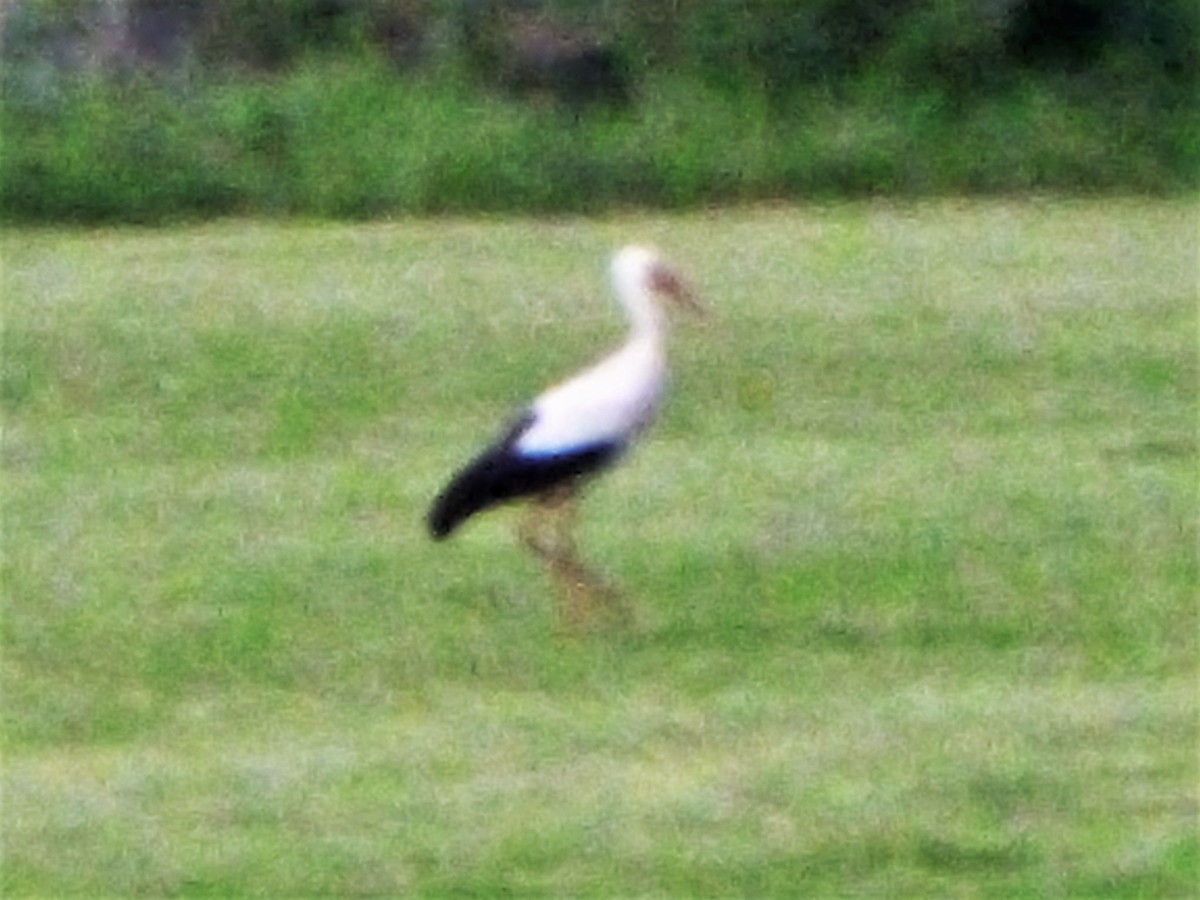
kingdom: Animalia
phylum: Chordata
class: Aves
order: Ciconiiformes
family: Ciconiidae
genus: Ciconia
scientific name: Ciconia ciconia
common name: White stork
